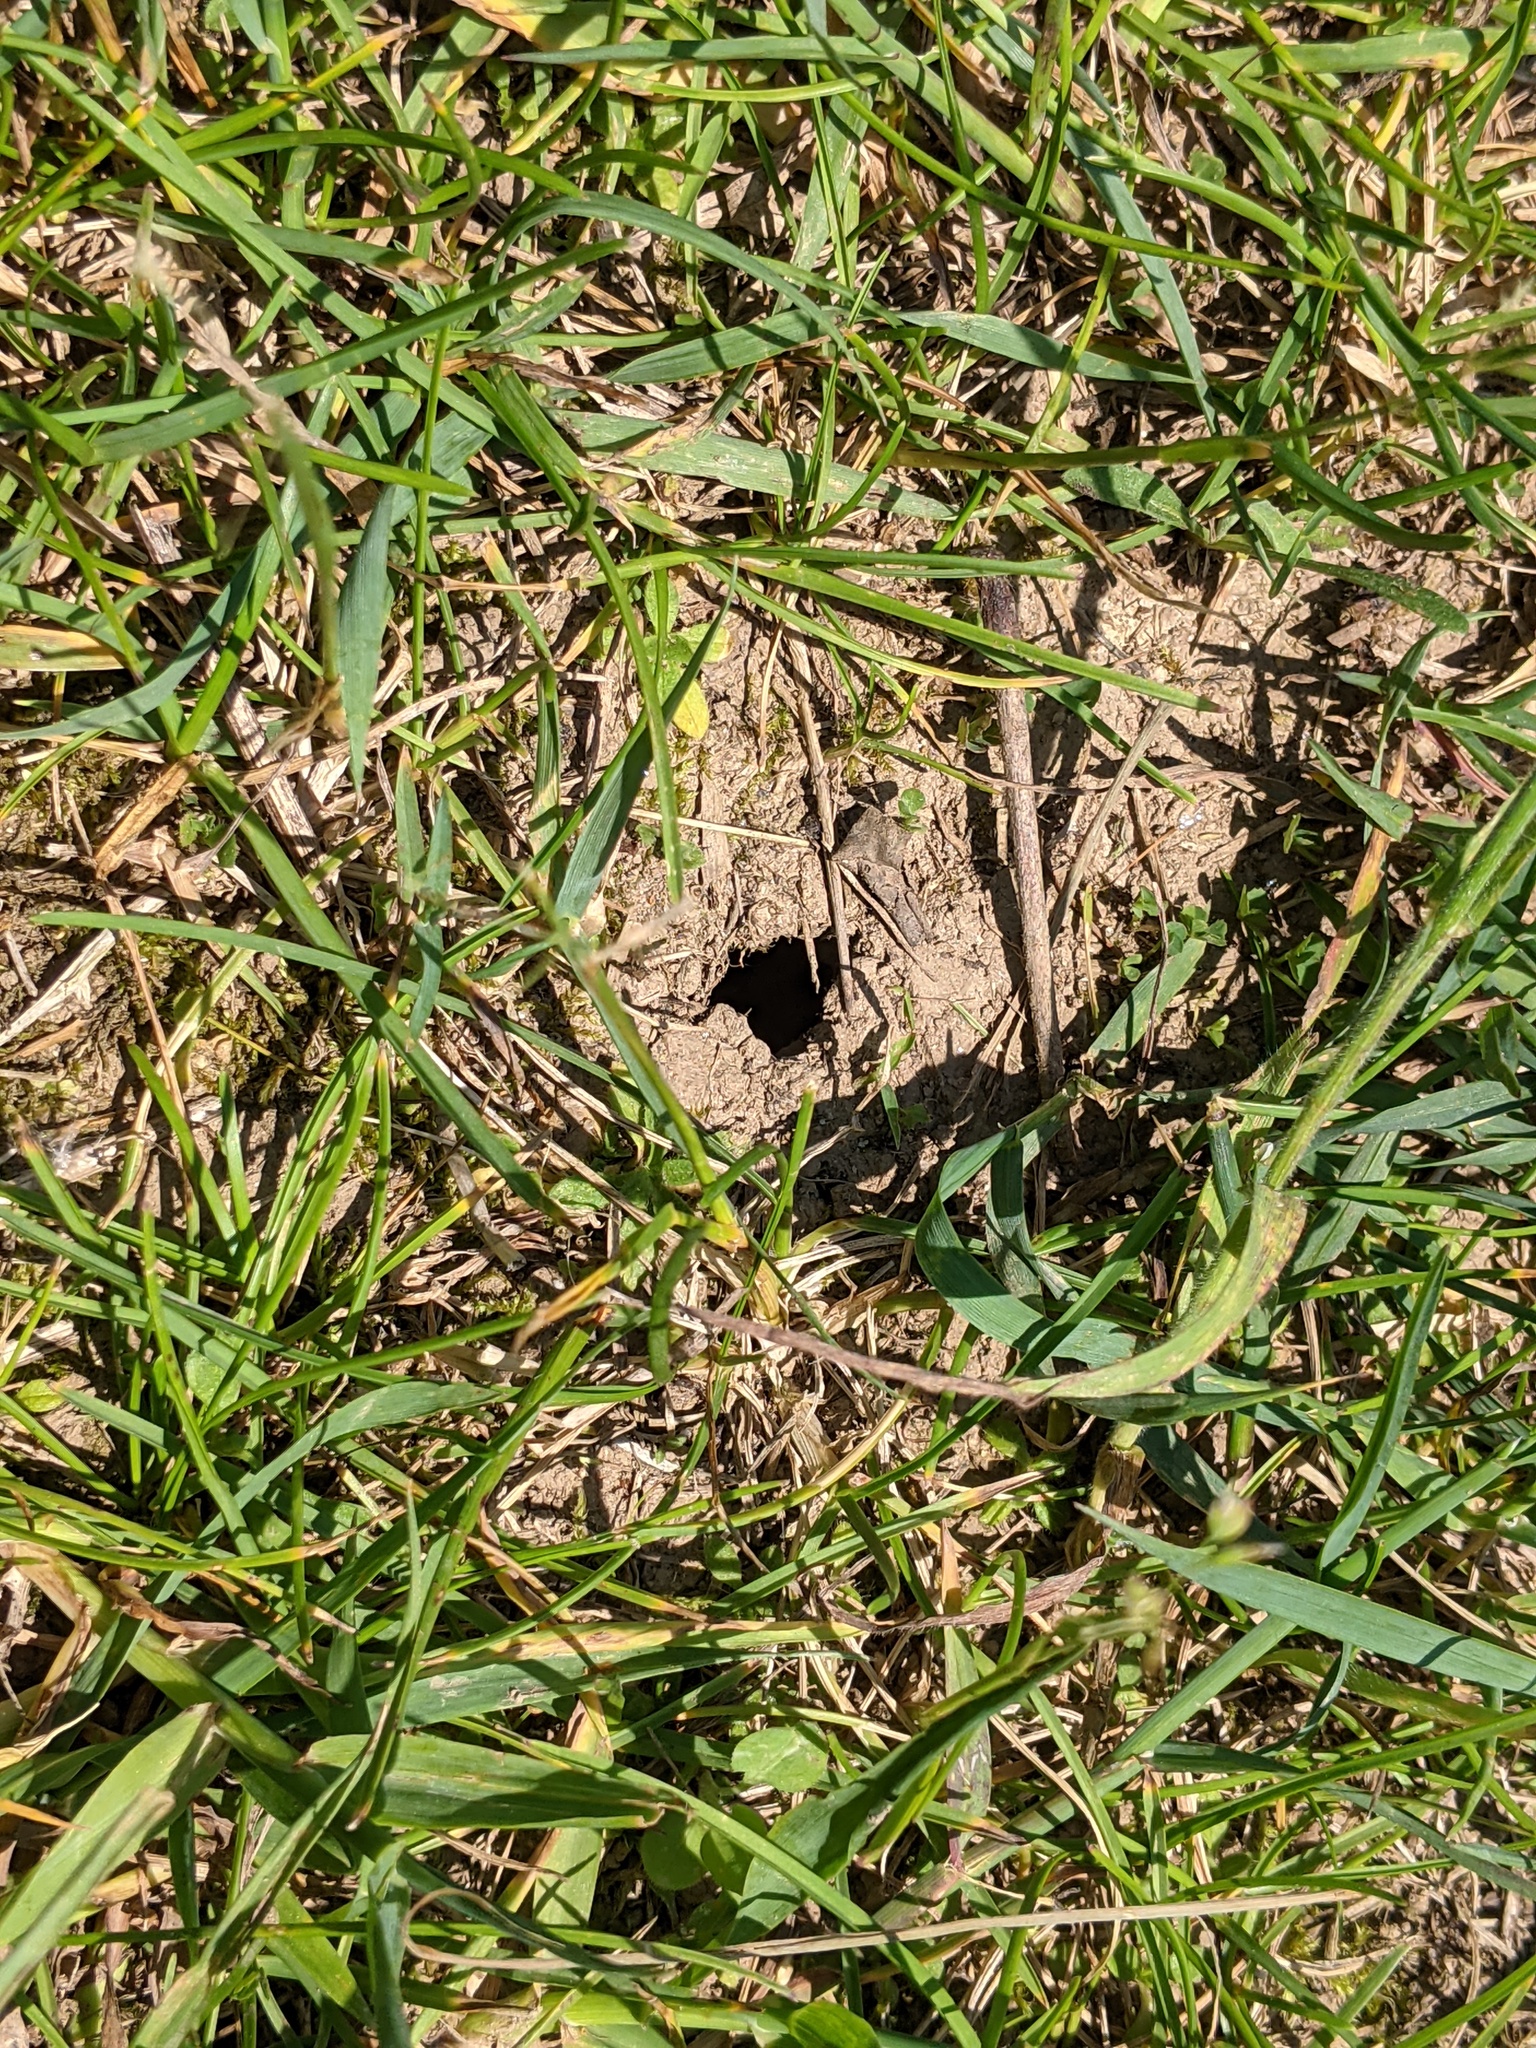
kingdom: Animalia
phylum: Arthropoda
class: Insecta
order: Hemiptera
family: Cicadidae
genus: Magicicada
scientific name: Magicicada septendecim
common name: Periodical cicada
